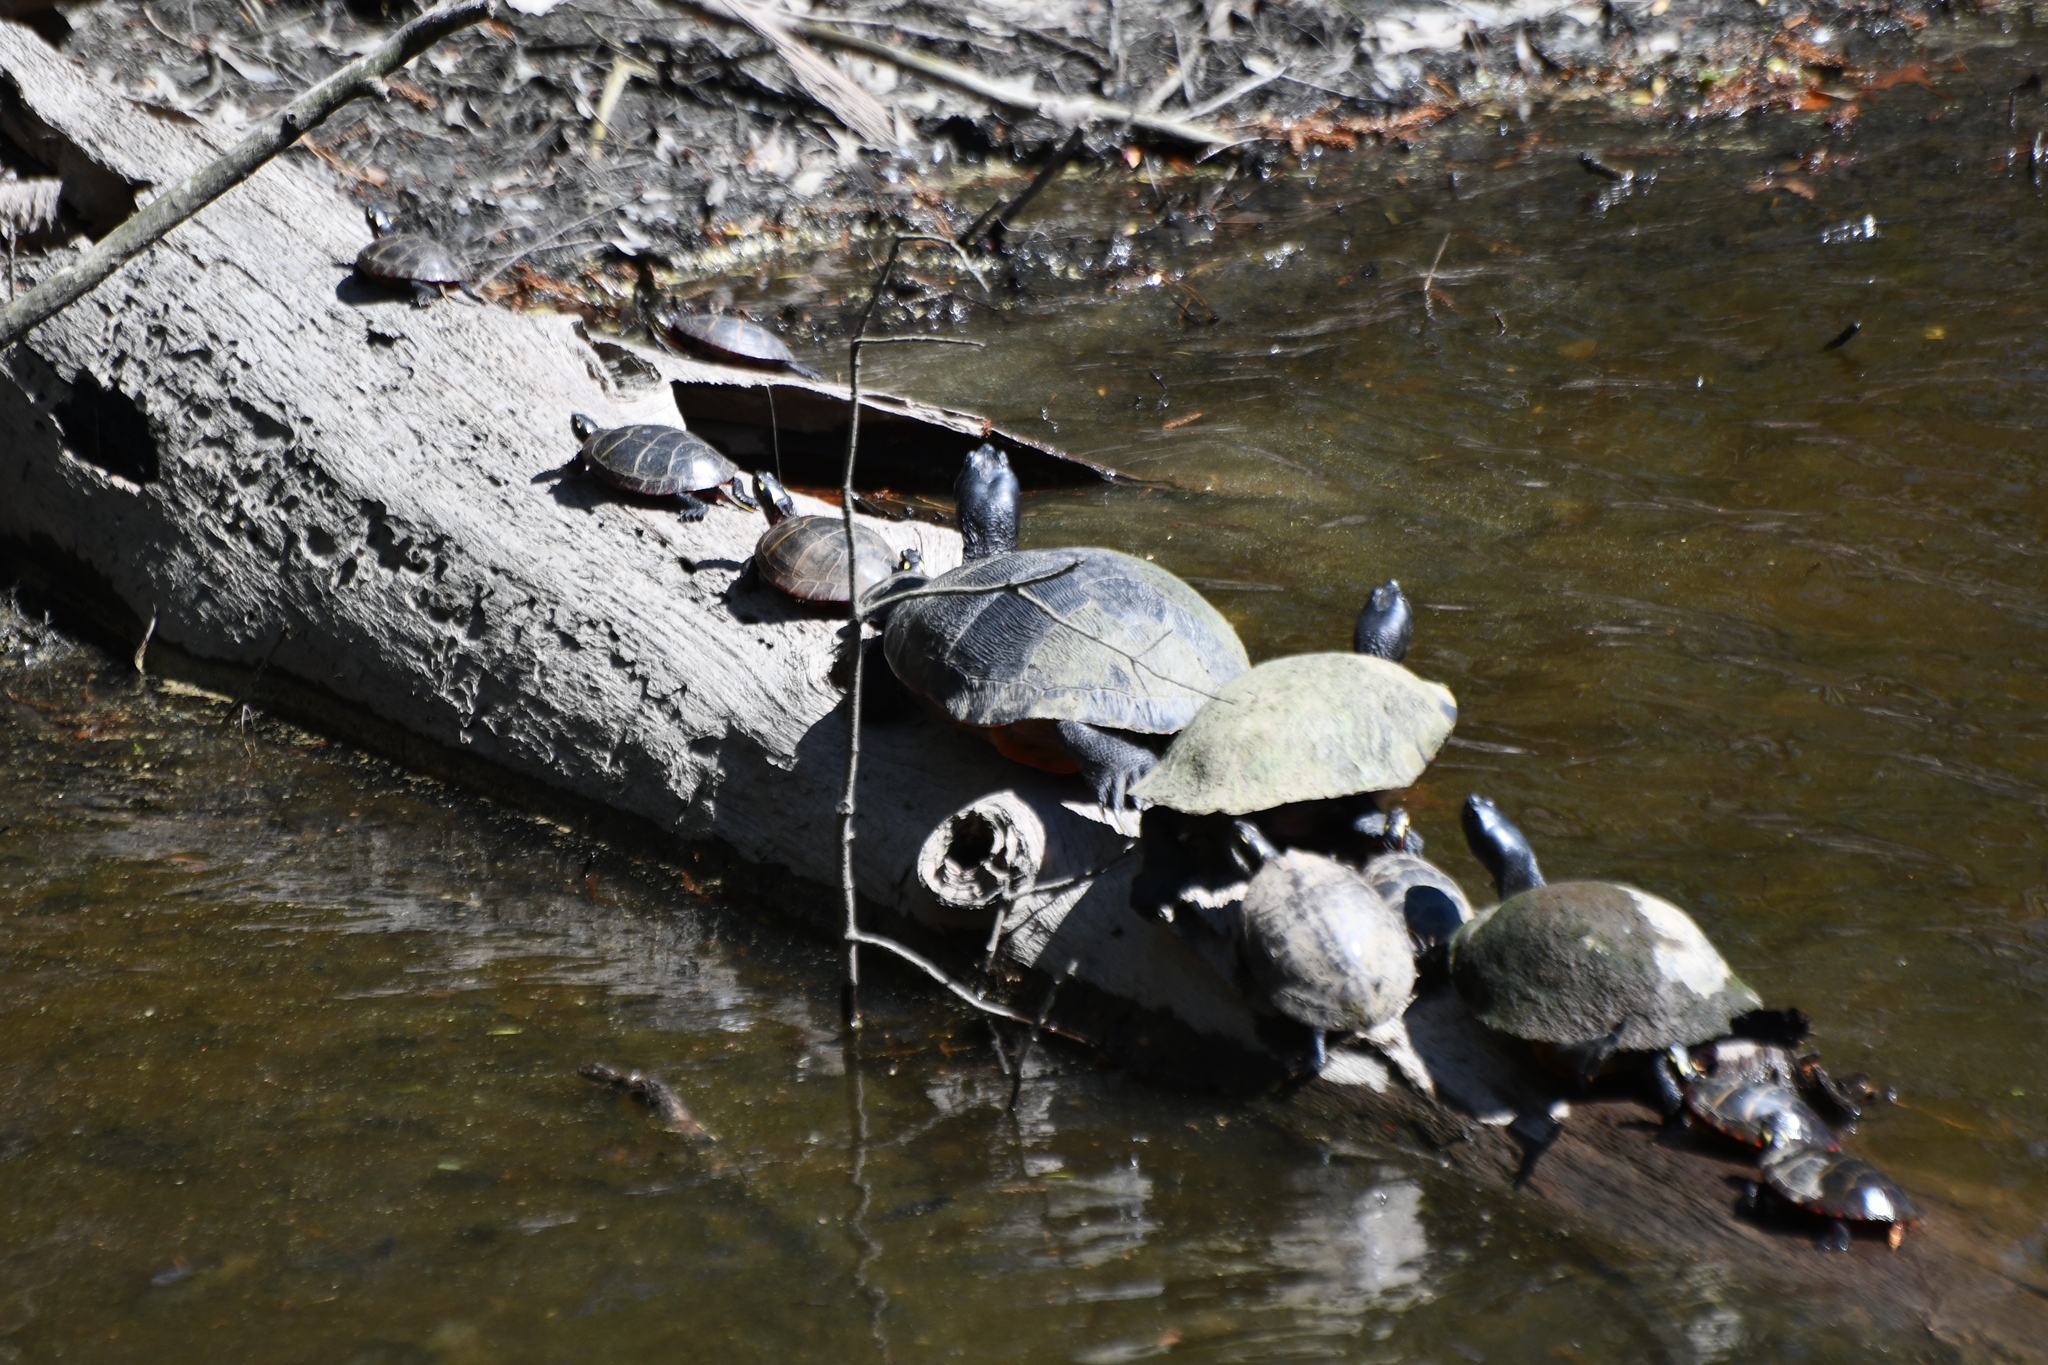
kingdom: Animalia
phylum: Chordata
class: Testudines
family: Emydidae
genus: Chrysemys
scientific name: Chrysemys picta
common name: Painted turtle
